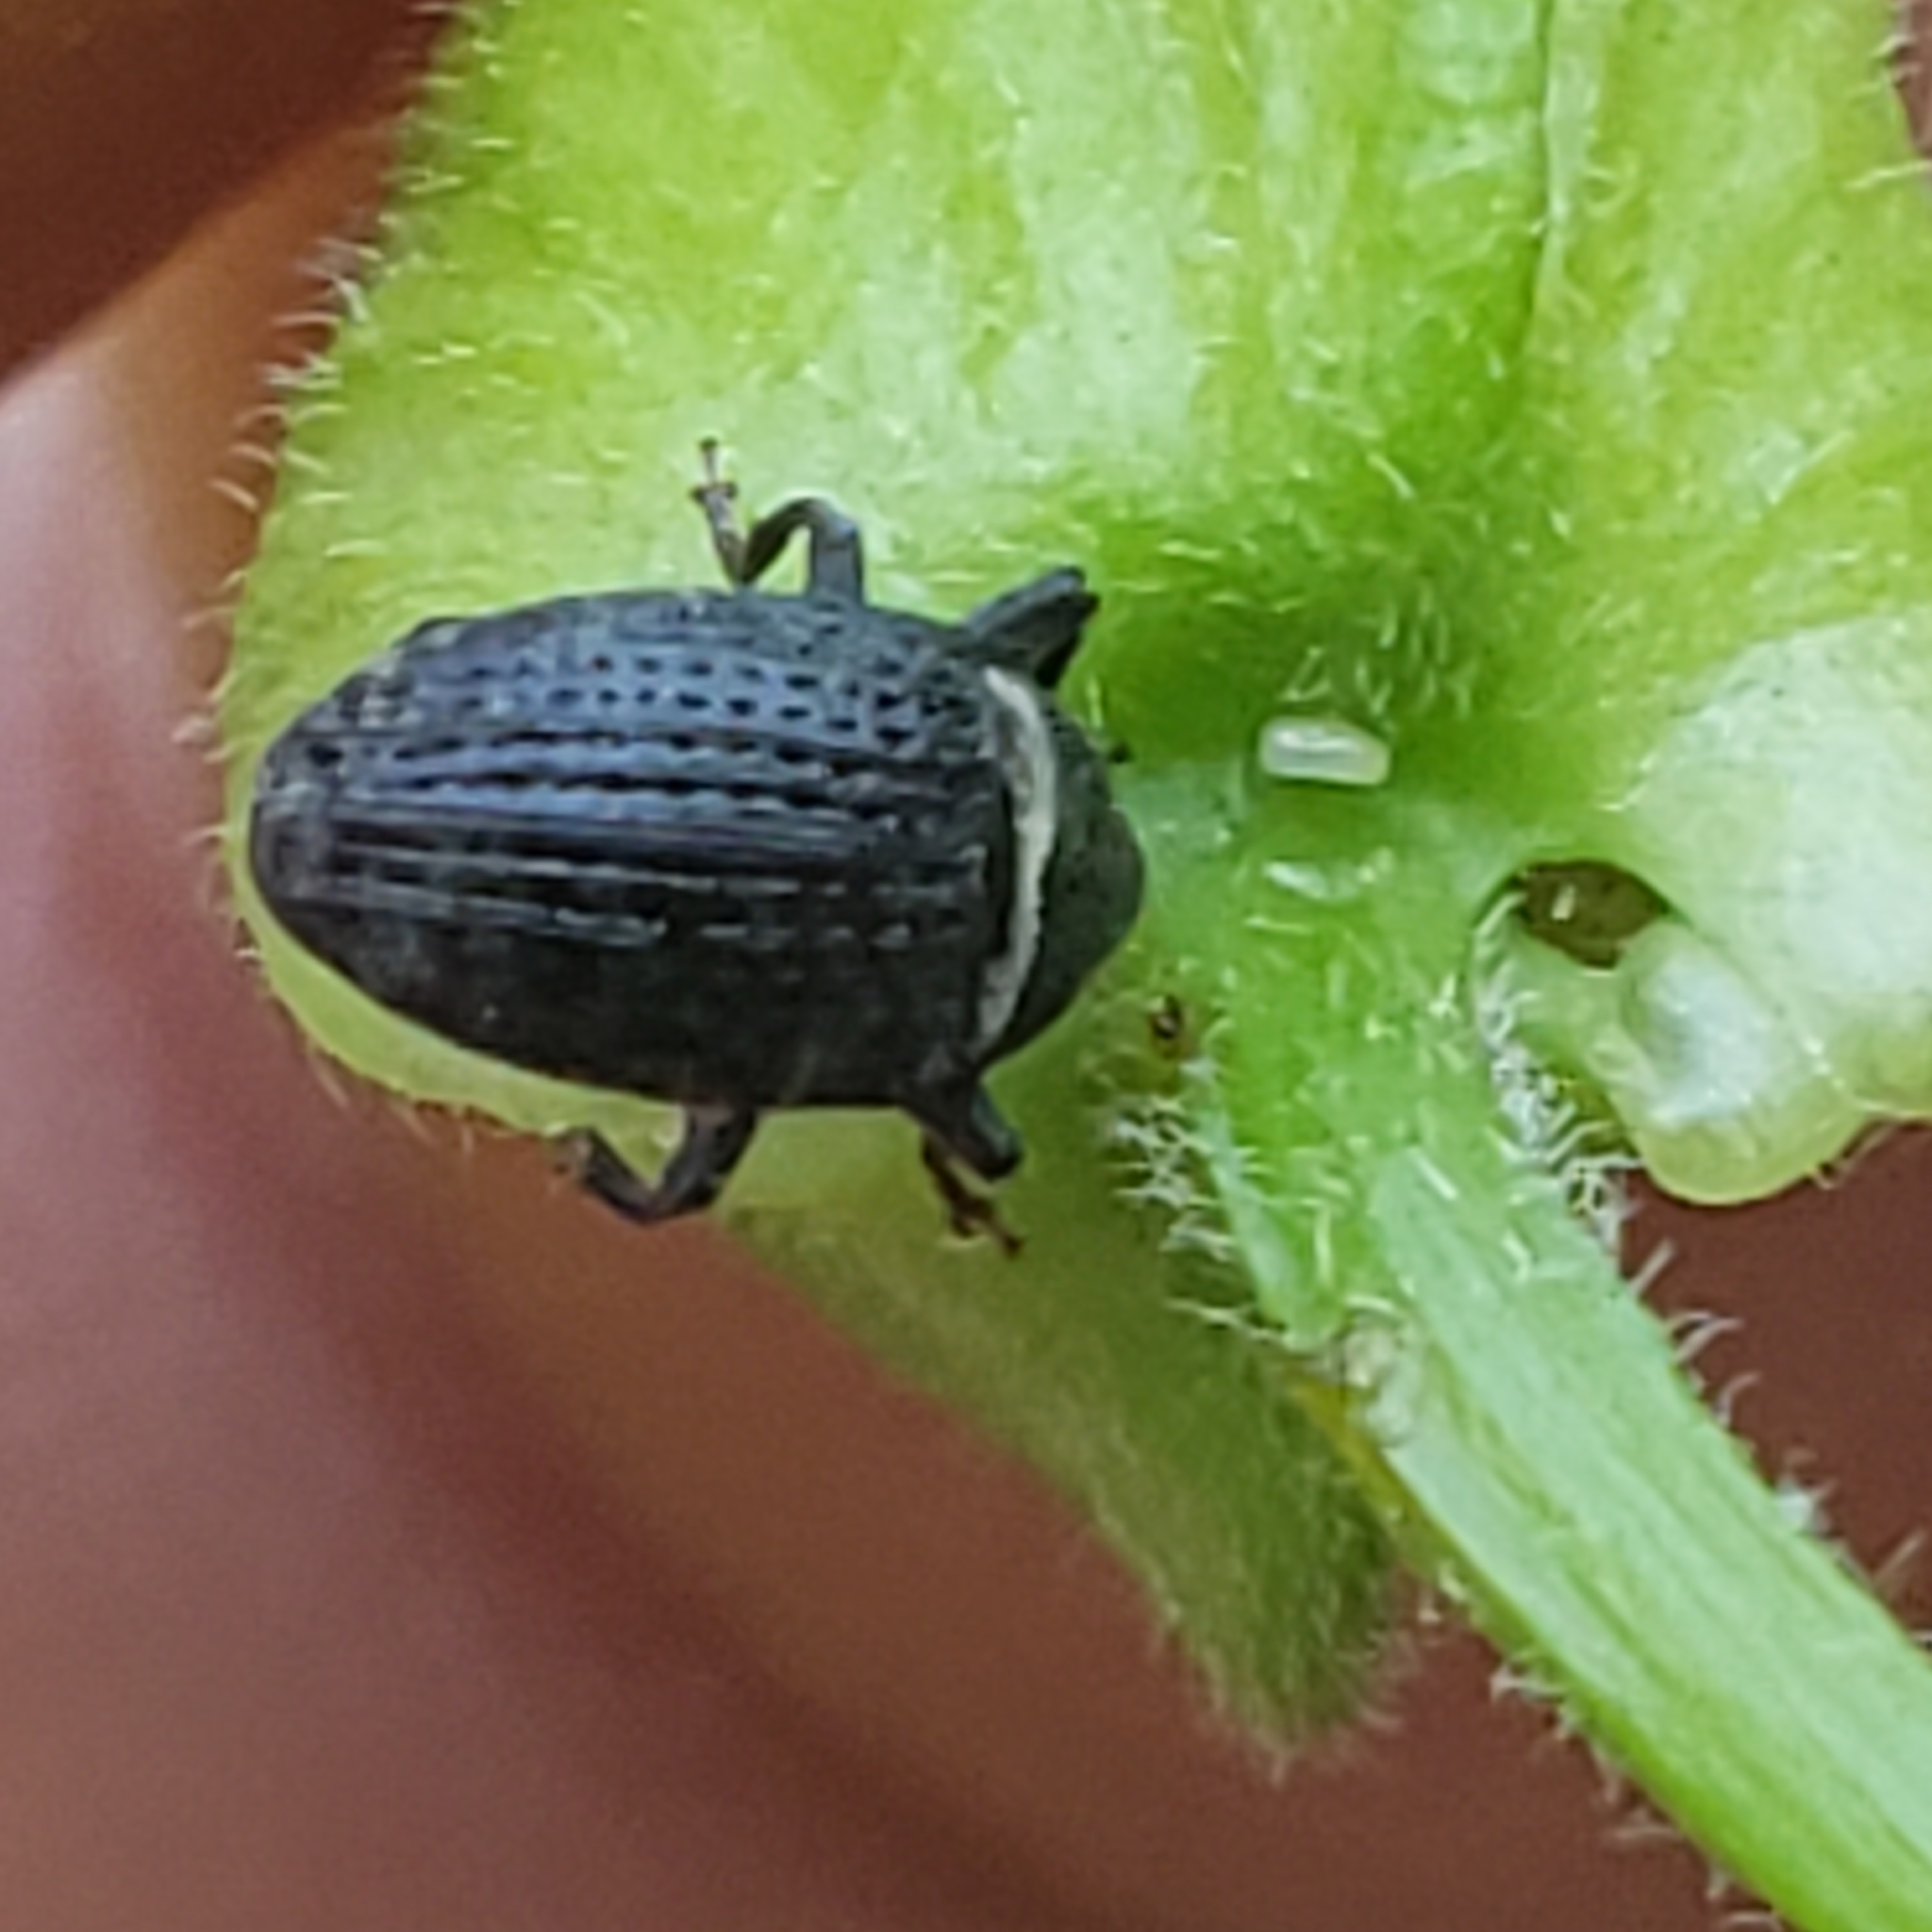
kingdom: Animalia
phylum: Arthropoda
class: Insecta
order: Coleoptera
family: Curculionidae
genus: Rhyssomatus
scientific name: Rhyssomatus aequalis
